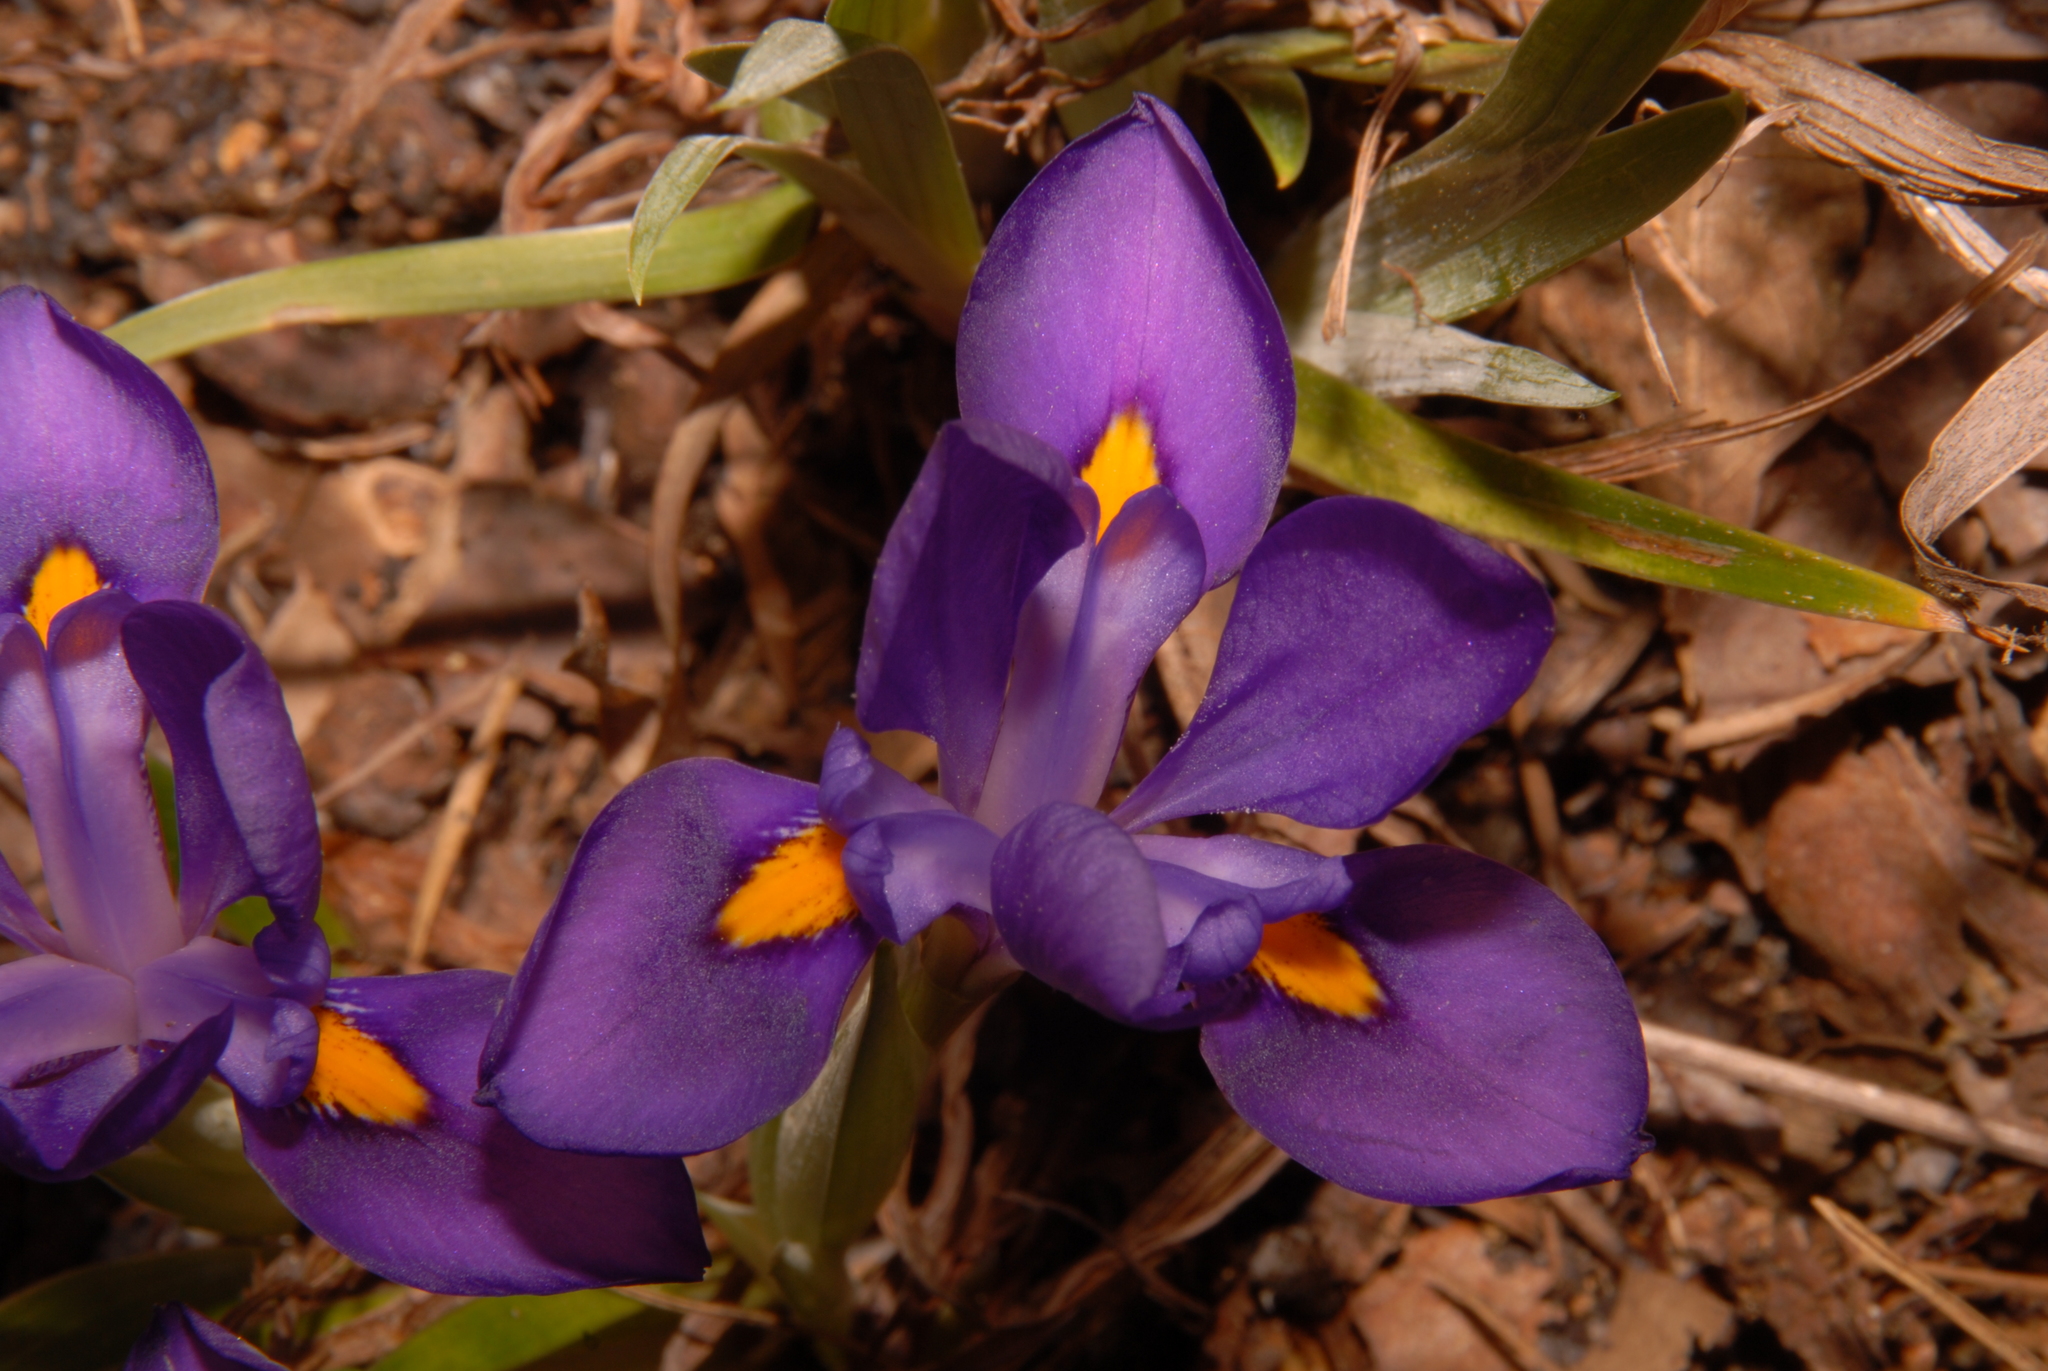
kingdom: Plantae
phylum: Tracheophyta
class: Liliopsida
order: Asparagales
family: Iridaceae
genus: Iris
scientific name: Iris verna
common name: Dwarf iris
